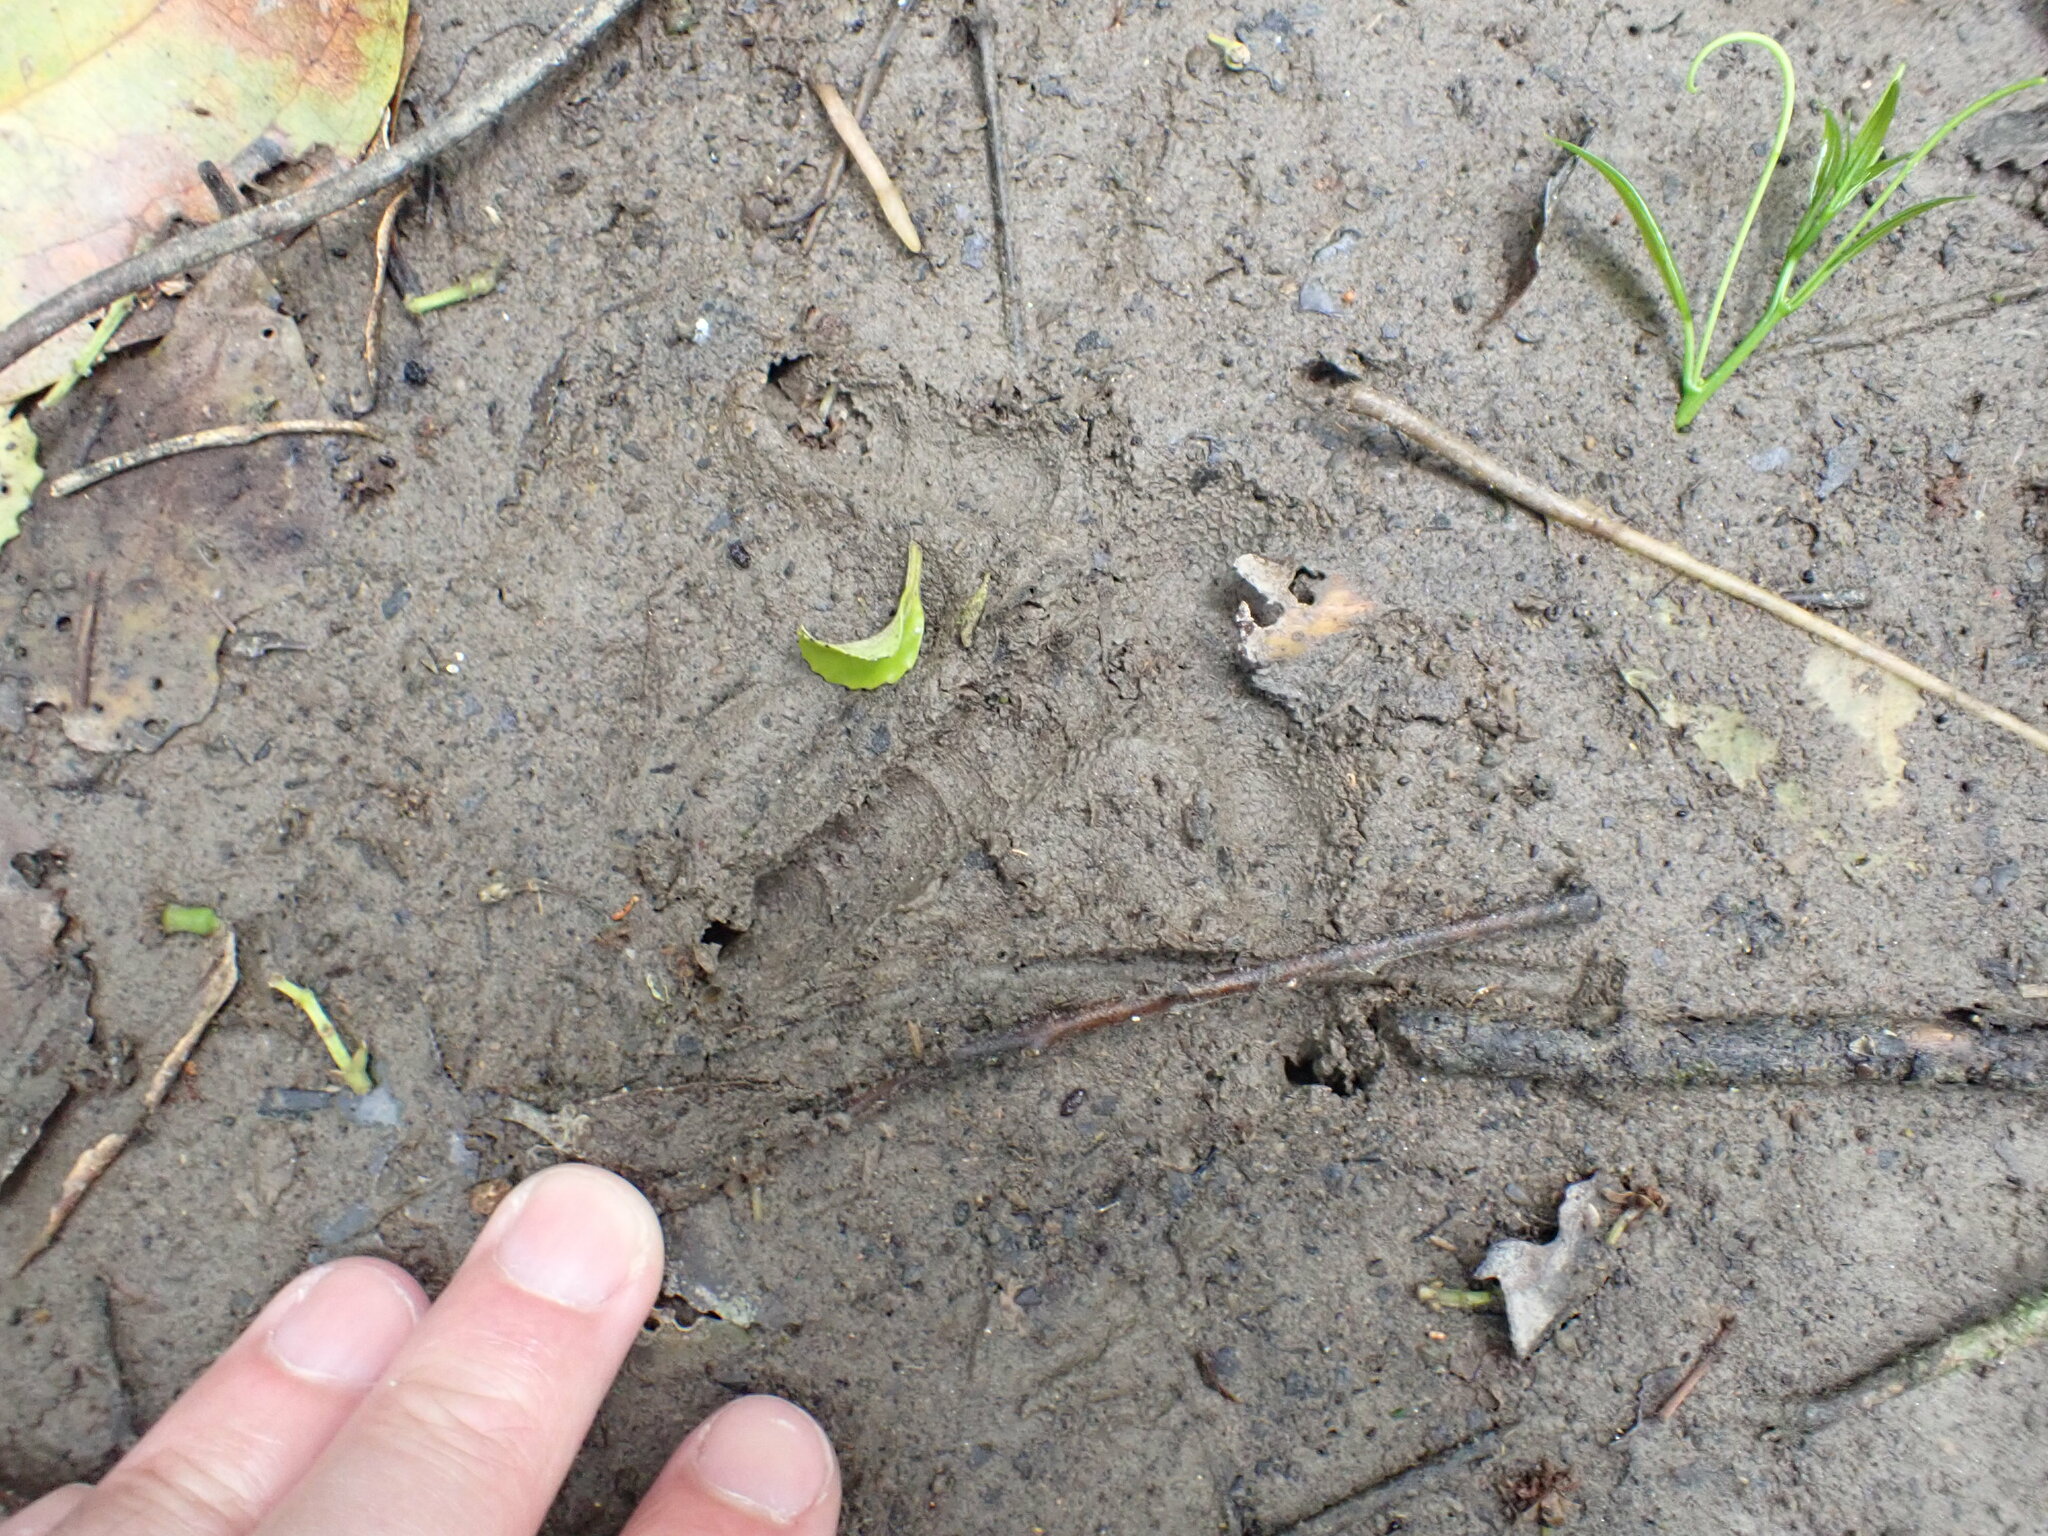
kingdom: Animalia
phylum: Chordata
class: Aves
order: Apterygiformes
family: Apterygidae
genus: Apteryx
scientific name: Apteryx mantelli
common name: North island brown kiwi
